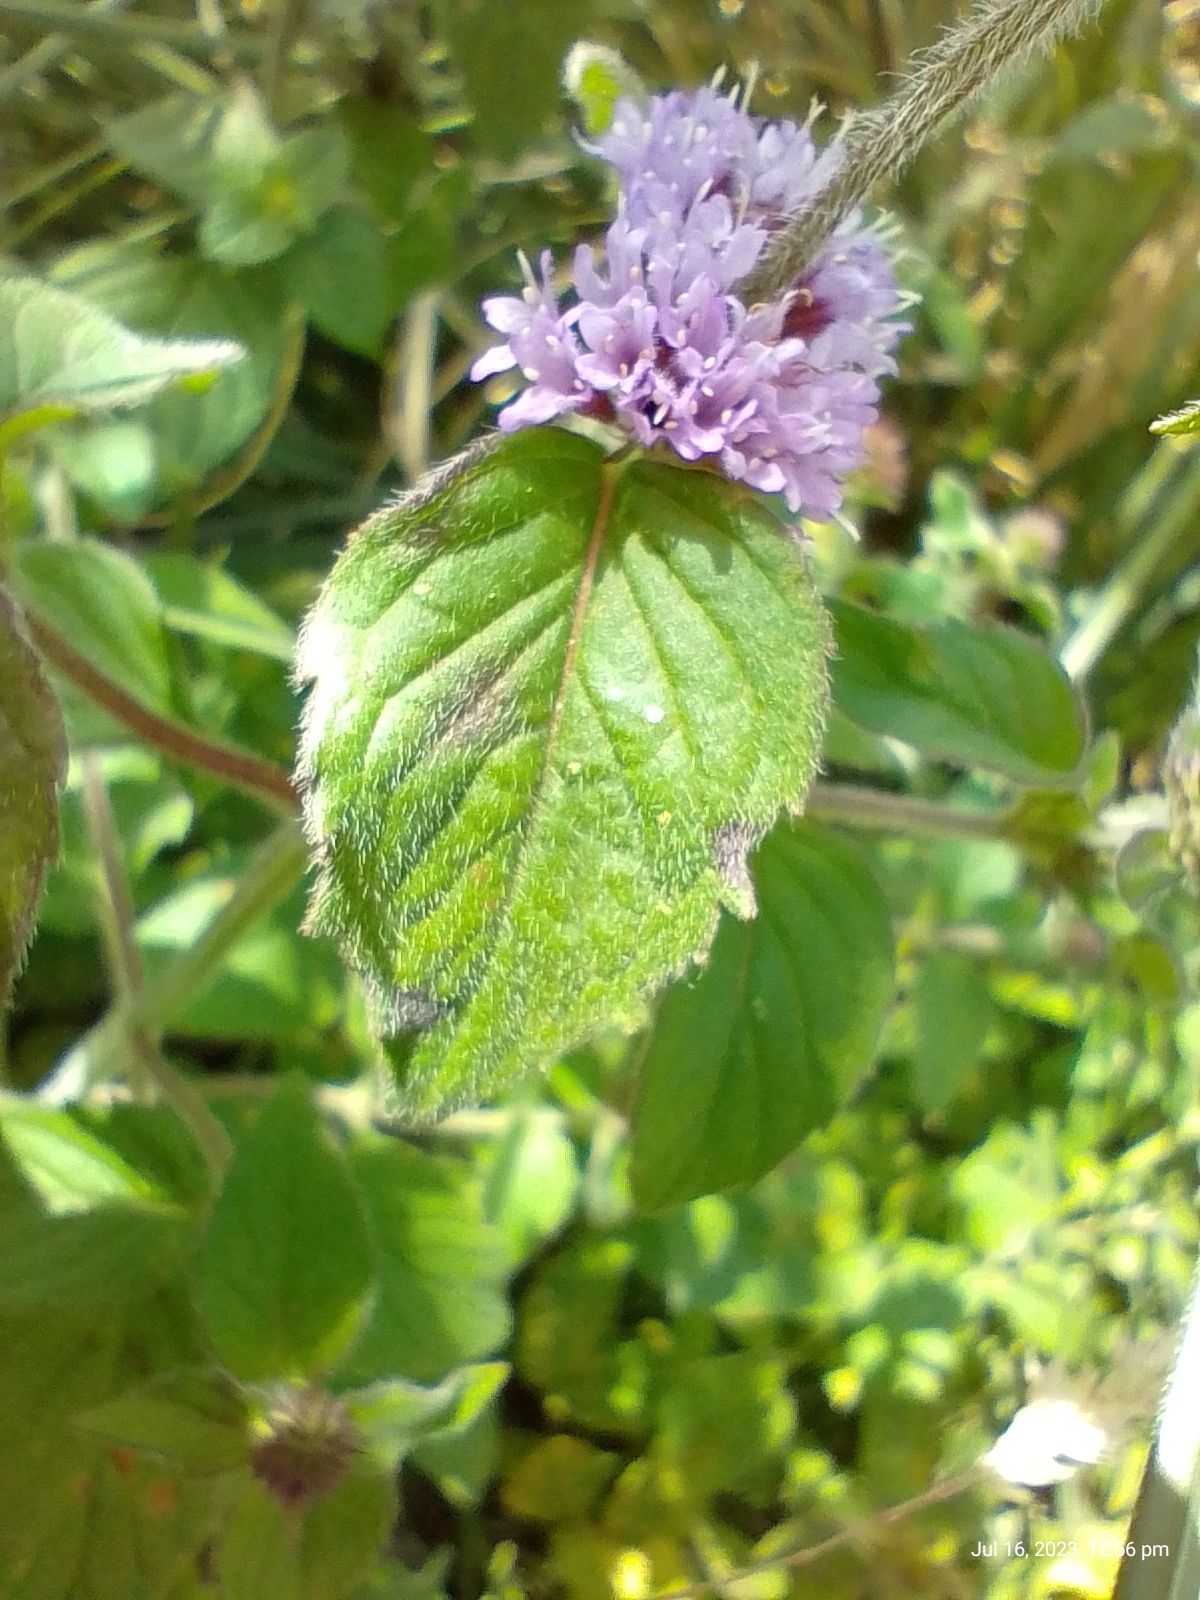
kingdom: Plantae
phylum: Tracheophyta
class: Magnoliopsida
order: Lamiales
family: Lamiaceae
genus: Mentha
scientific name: Mentha aquatica
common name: Water mint
